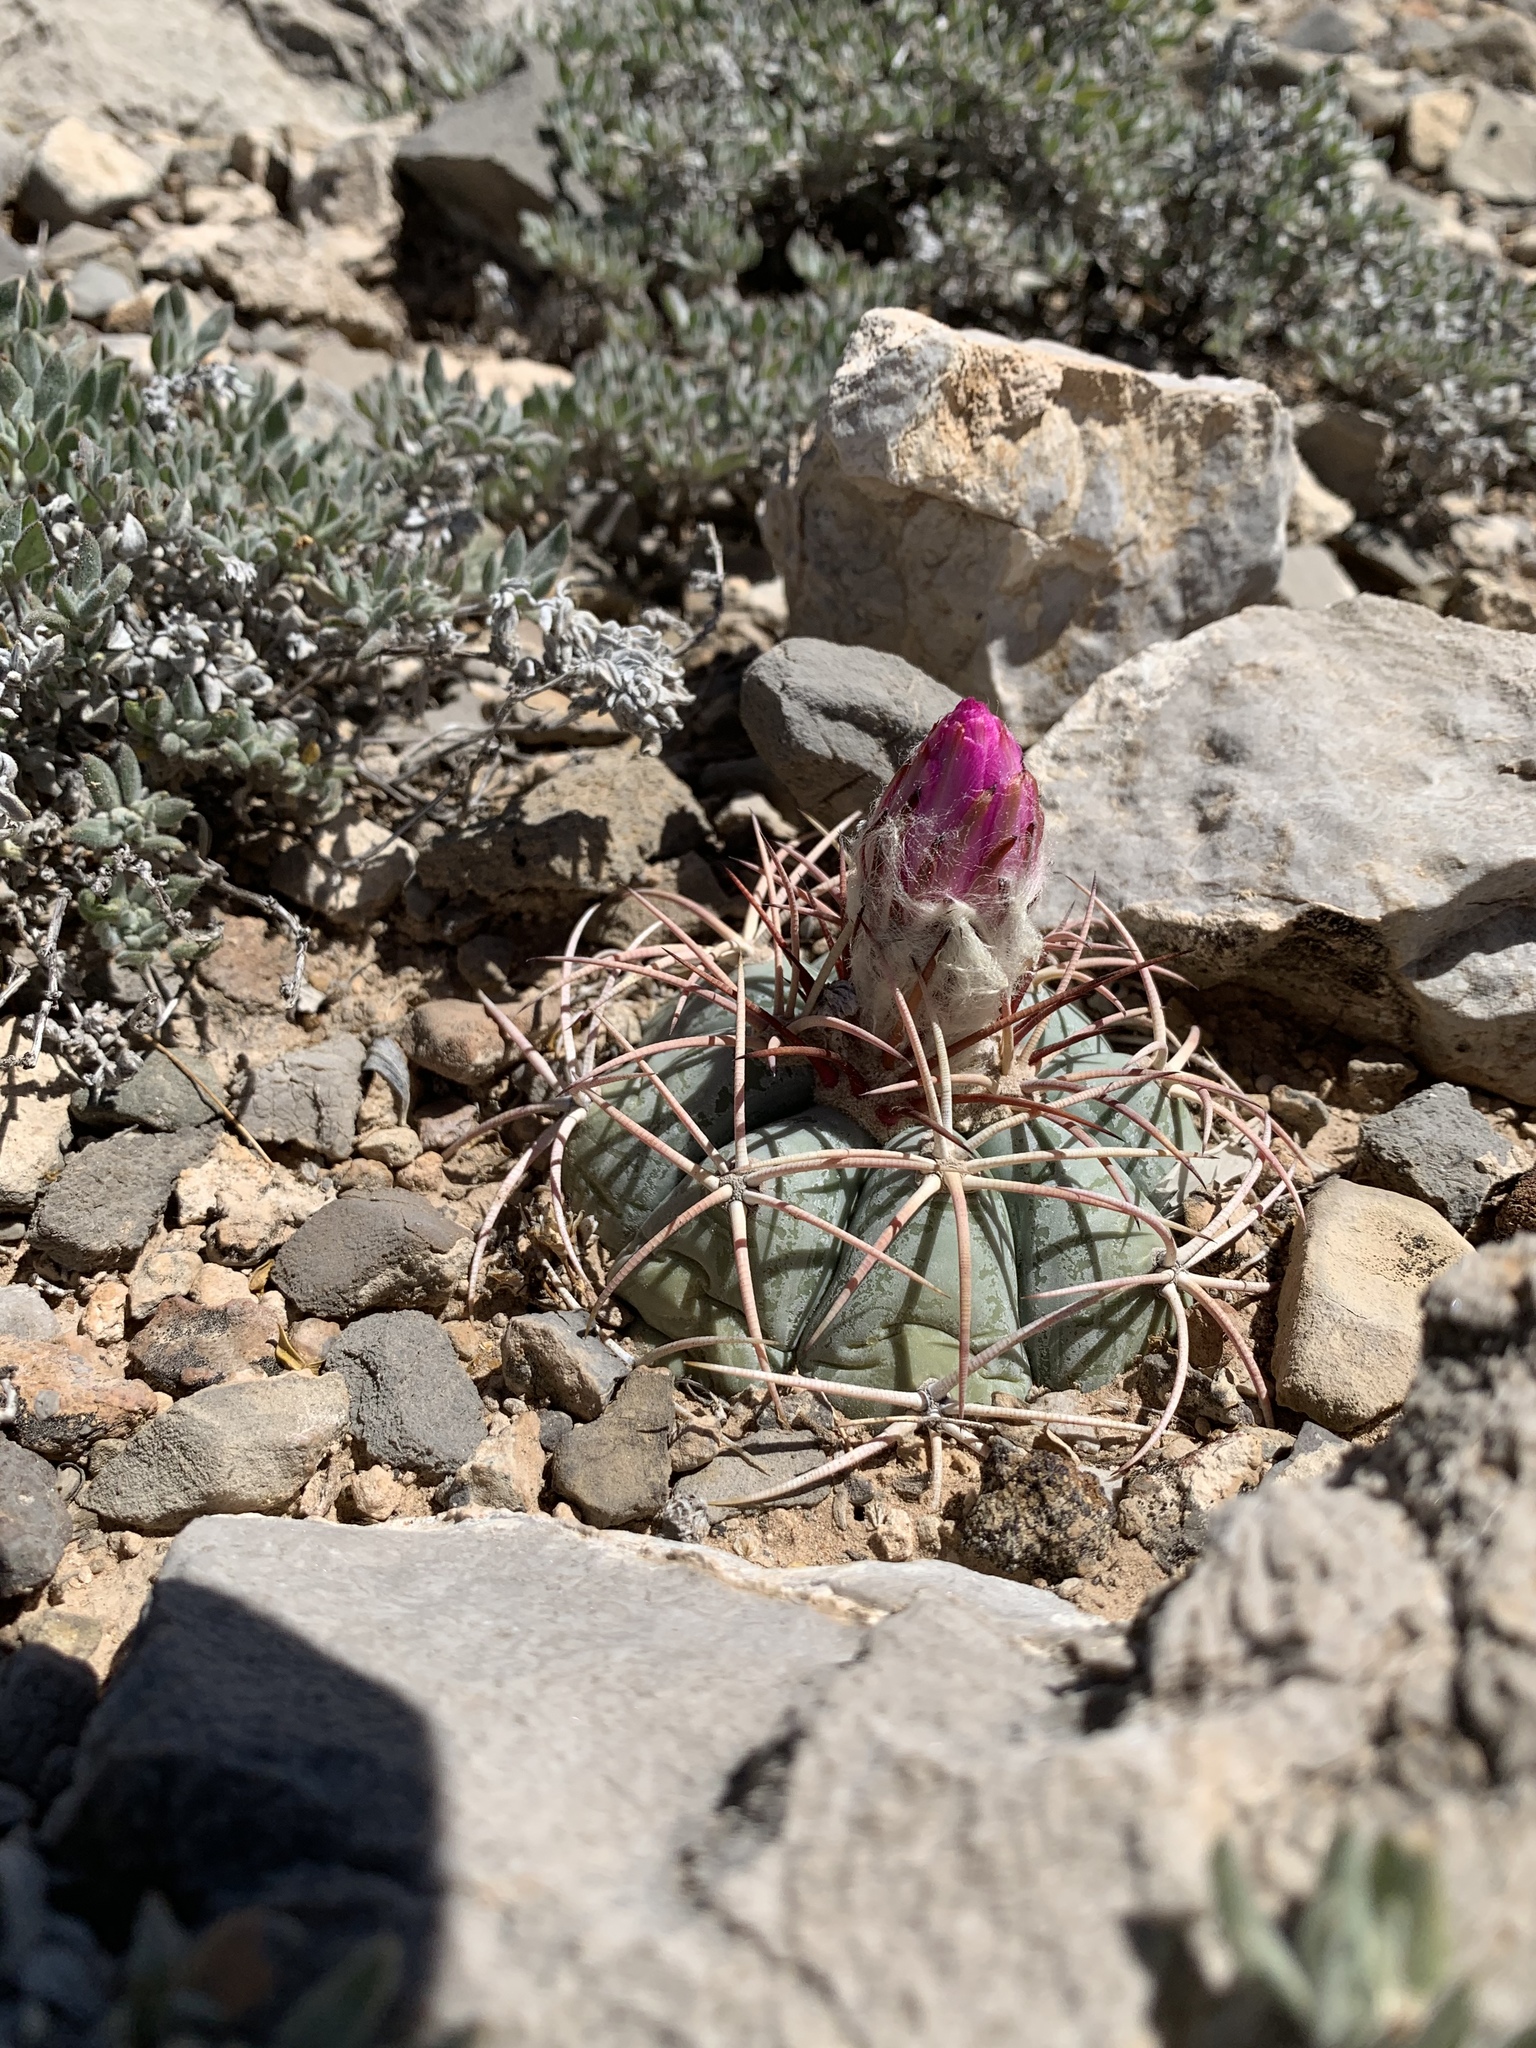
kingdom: Plantae
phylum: Tracheophyta
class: Magnoliopsida
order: Caryophyllales
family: Cactaceae
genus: Echinocactus
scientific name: Echinocactus horizonthalonius
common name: Devilshead
